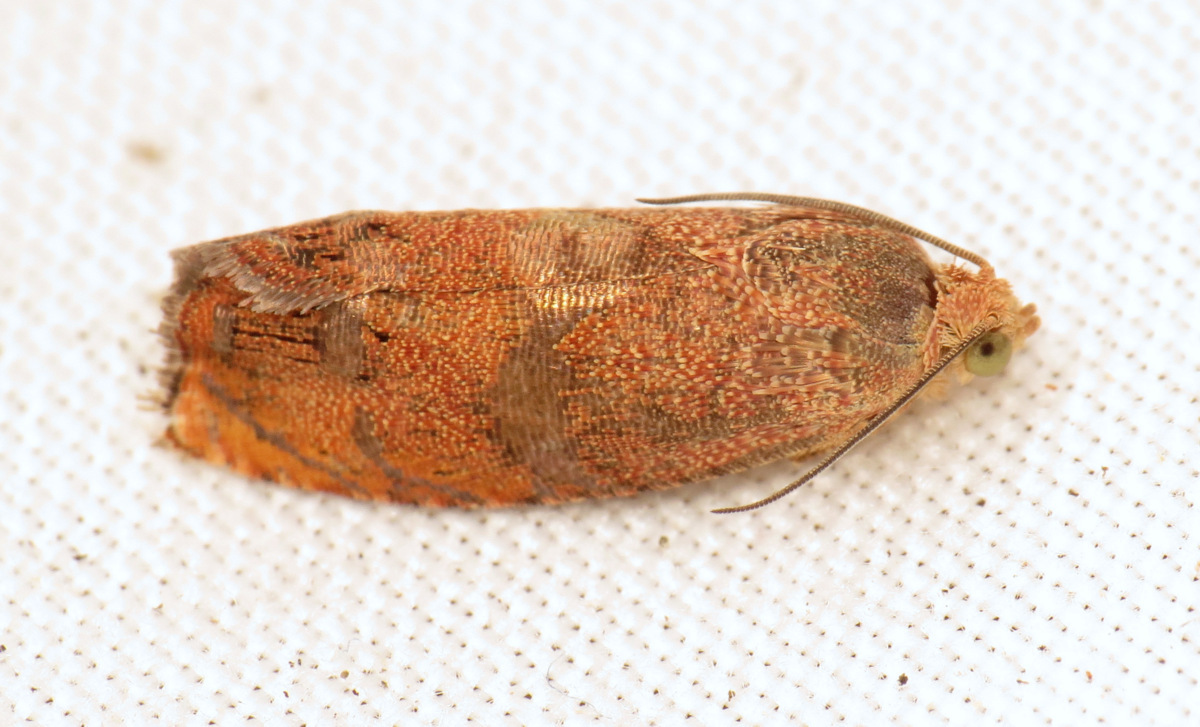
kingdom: Animalia
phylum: Arthropoda
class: Insecta
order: Lepidoptera
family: Tortricidae
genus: Cydia
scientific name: Cydia latiferreana
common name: Filbertworm moth
